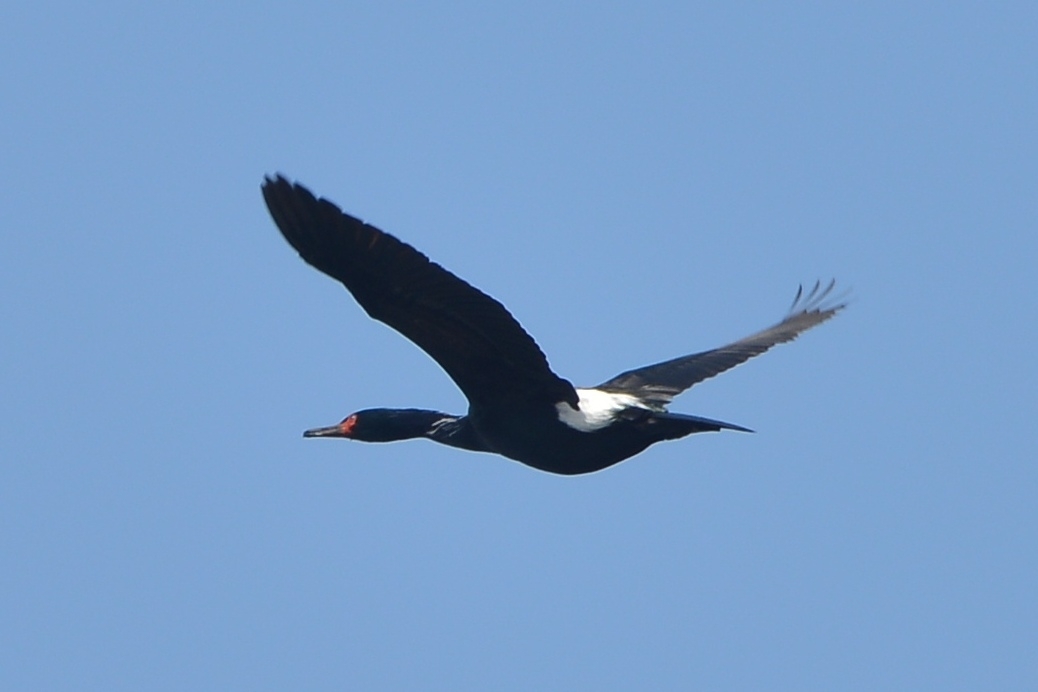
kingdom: Animalia
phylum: Chordata
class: Aves
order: Suliformes
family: Phalacrocoracidae
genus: Phalacrocorax
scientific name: Phalacrocorax pelagicus
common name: Pelagic cormorant
